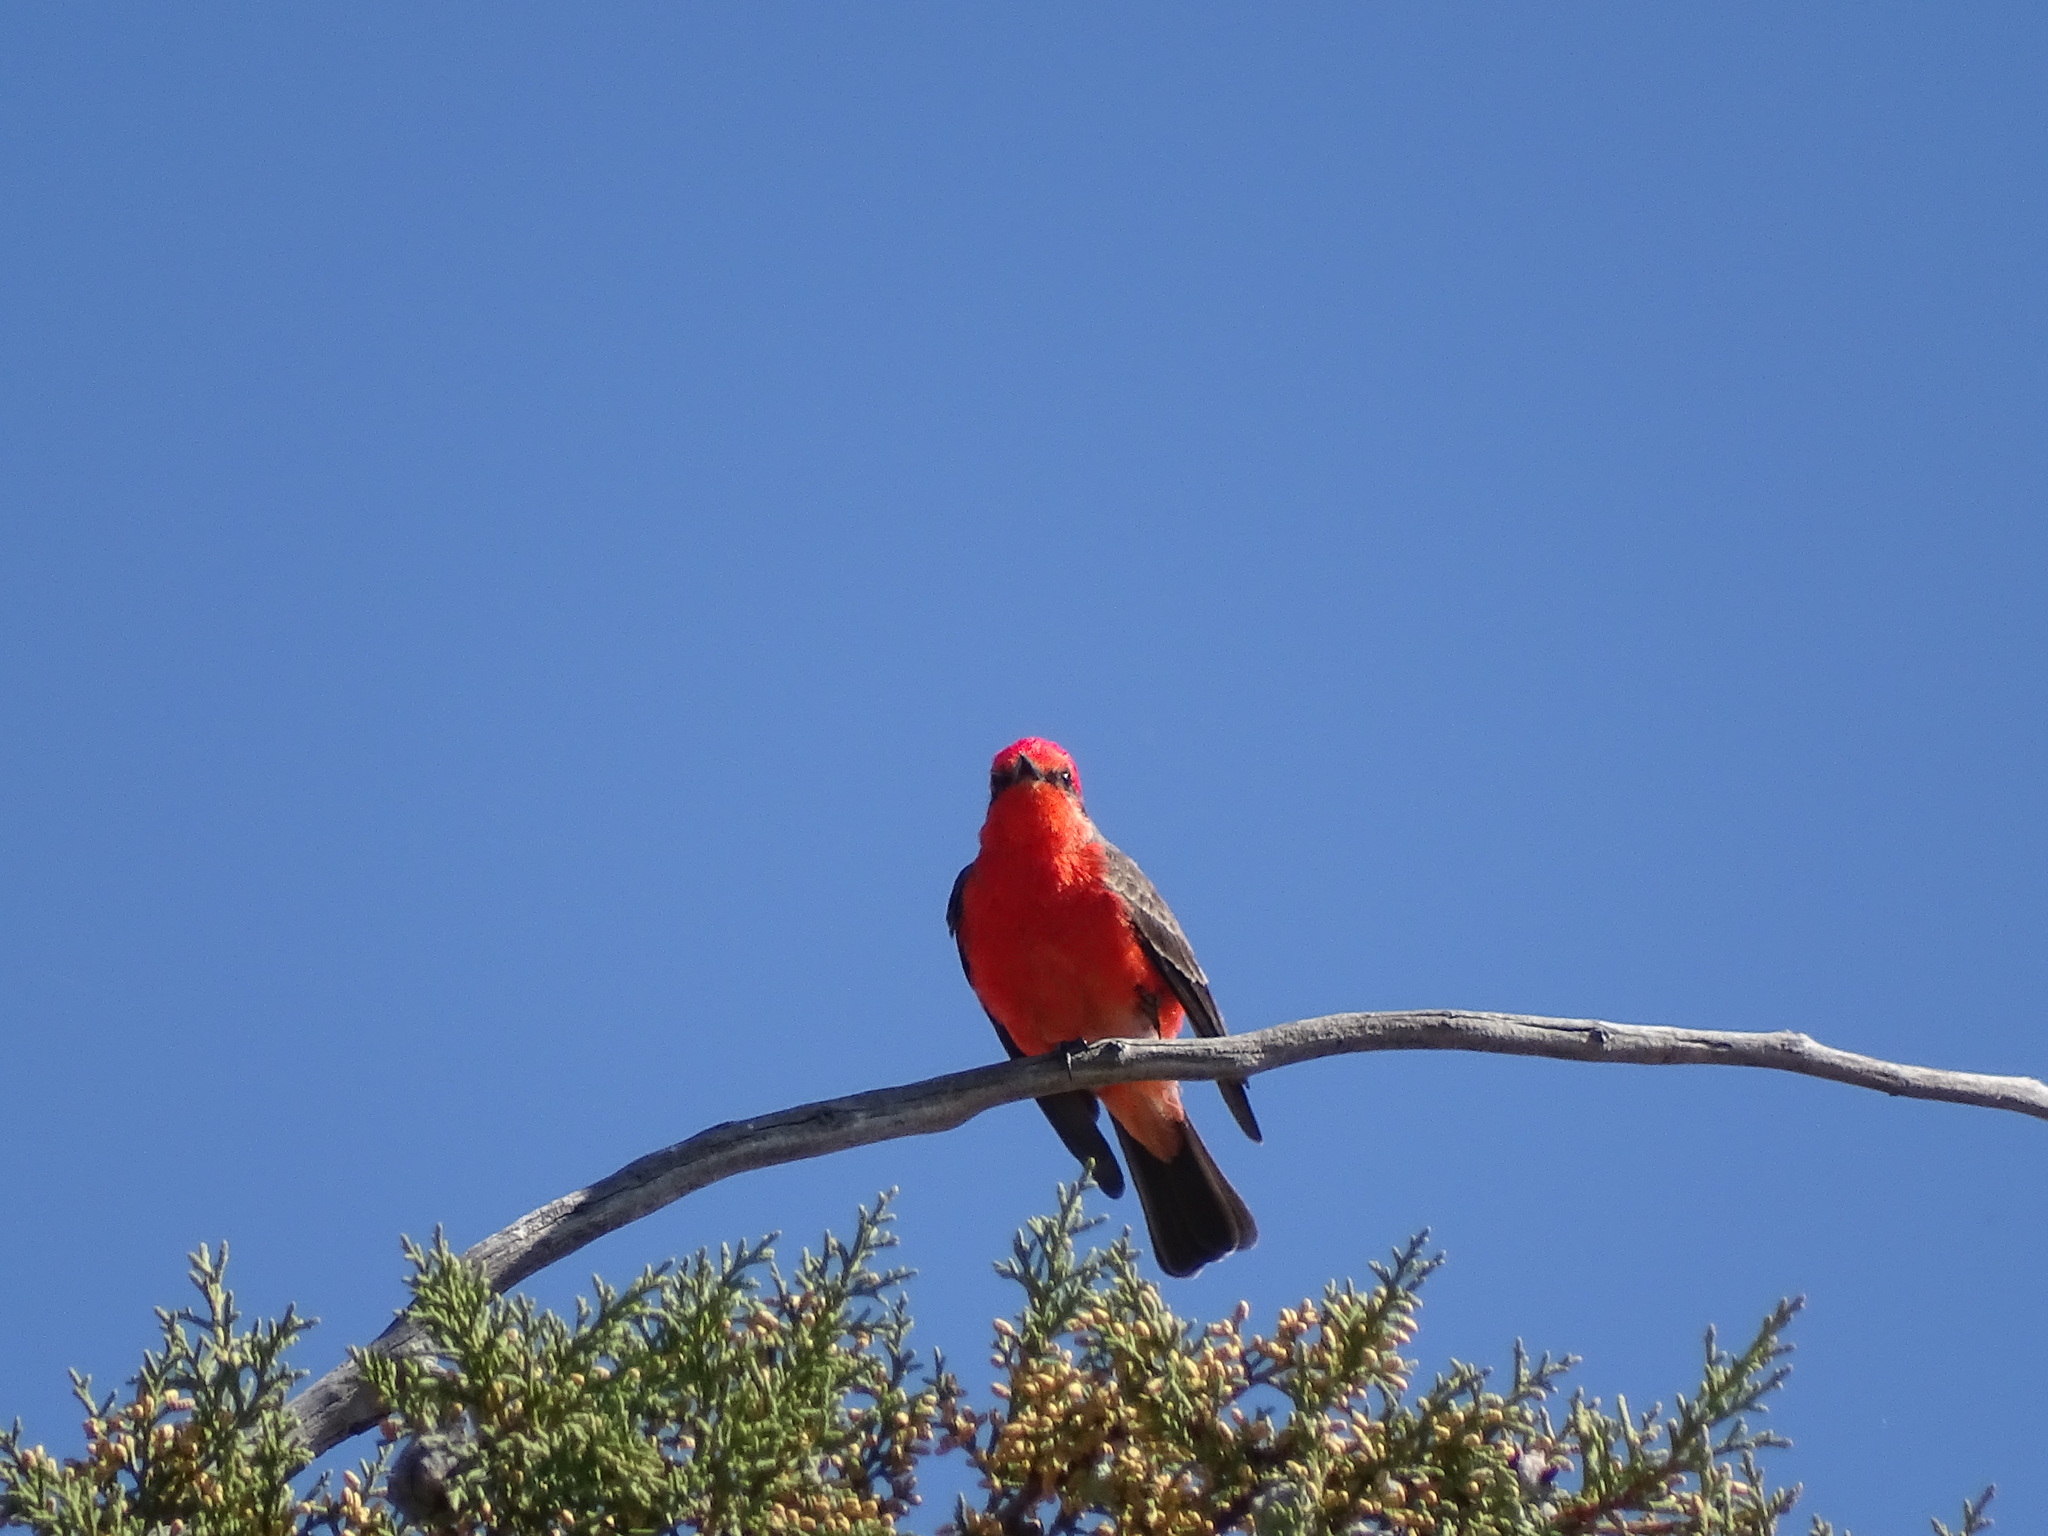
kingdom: Animalia
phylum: Chordata
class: Aves
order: Passeriformes
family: Tyrannidae
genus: Pyrocephalus
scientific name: Pyrocephalus rubinus
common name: Vermilion flycatcher
